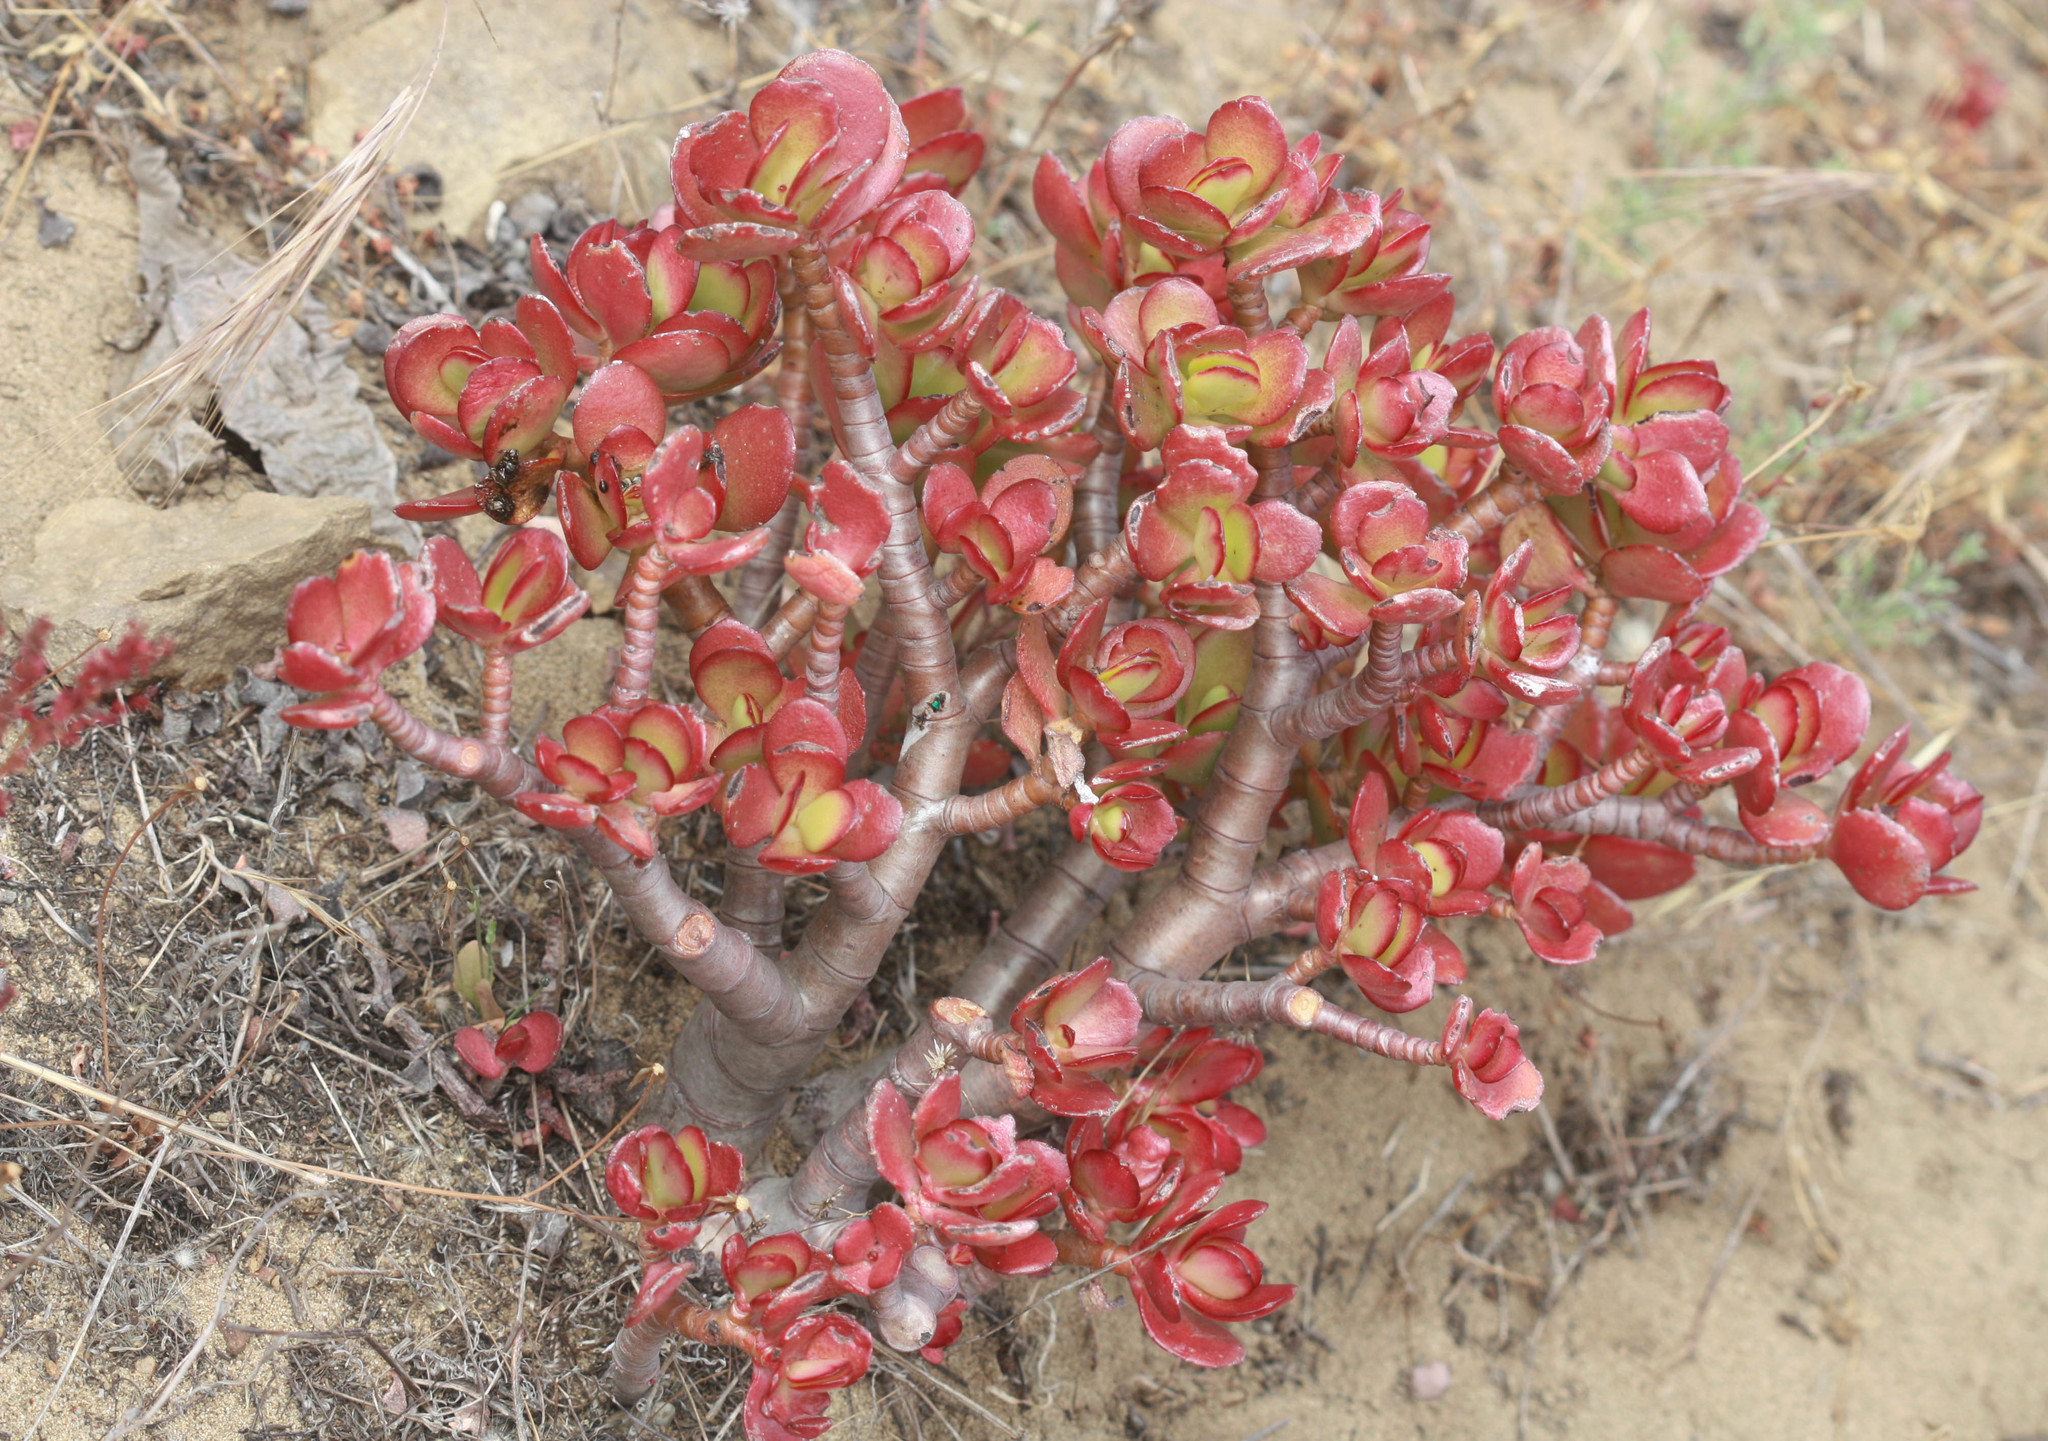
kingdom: Plantae
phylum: Tracheophyta
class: Magnoliopsida
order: Saxifragales
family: Crassulaceae
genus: Crassula
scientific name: Crassula ovata
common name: Jade plant
